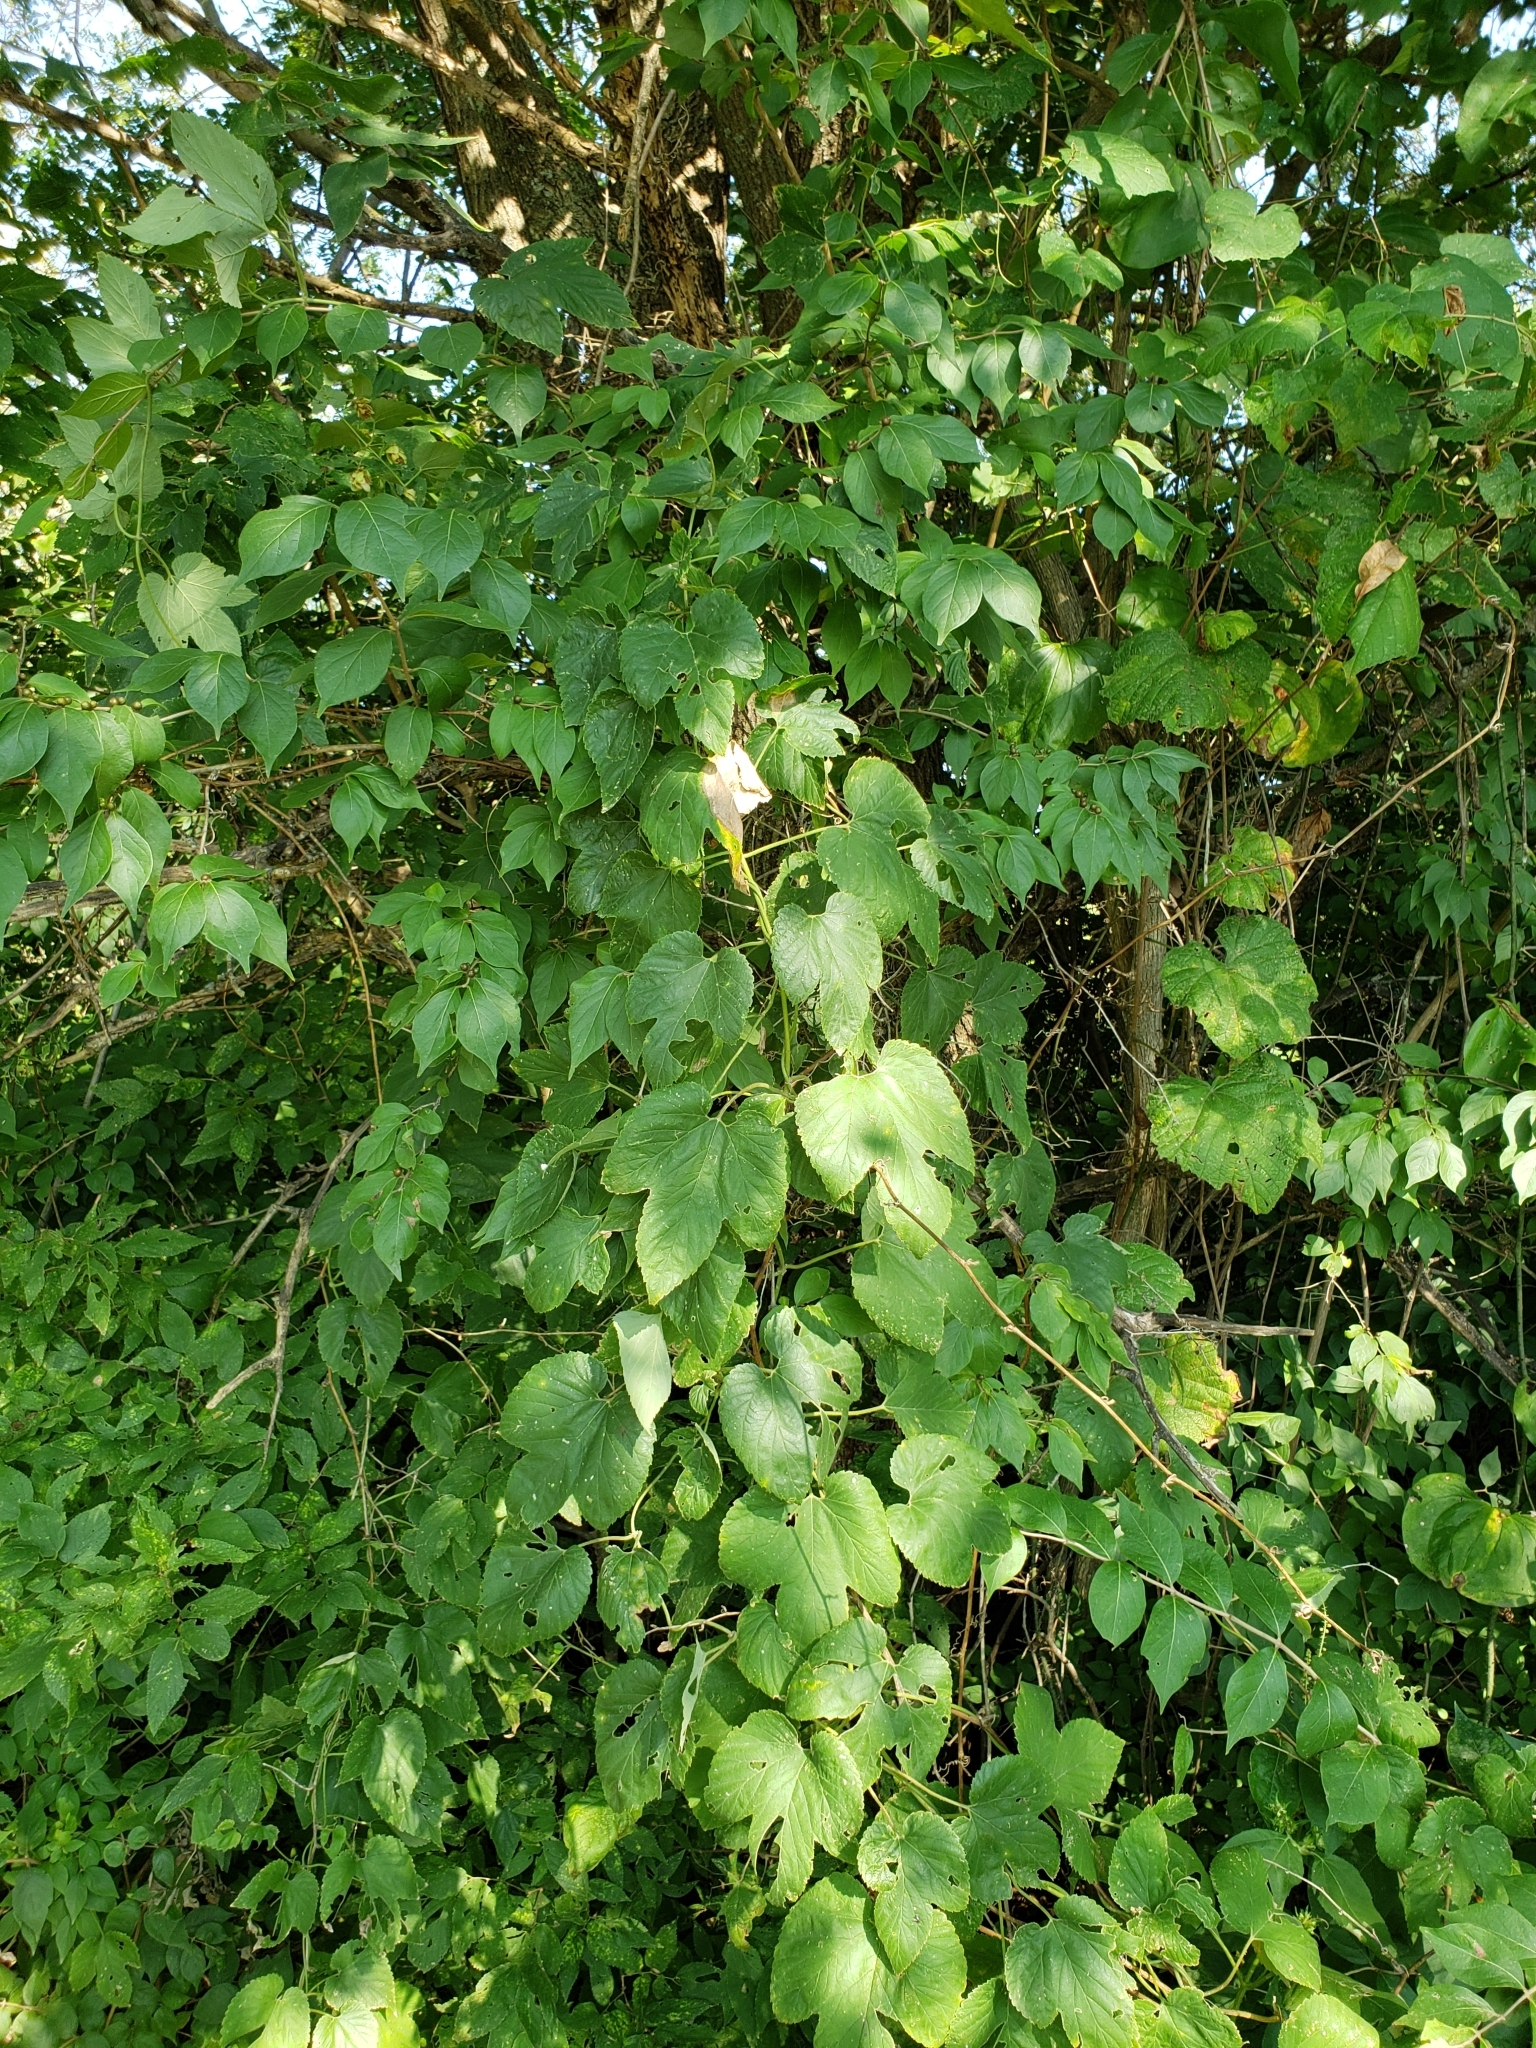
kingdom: Plantae
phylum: Tracheophyta
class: Magnoliopsida
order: Rosales
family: Cannabaceae
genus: Humulus
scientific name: Humulus lupulus
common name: Hop
